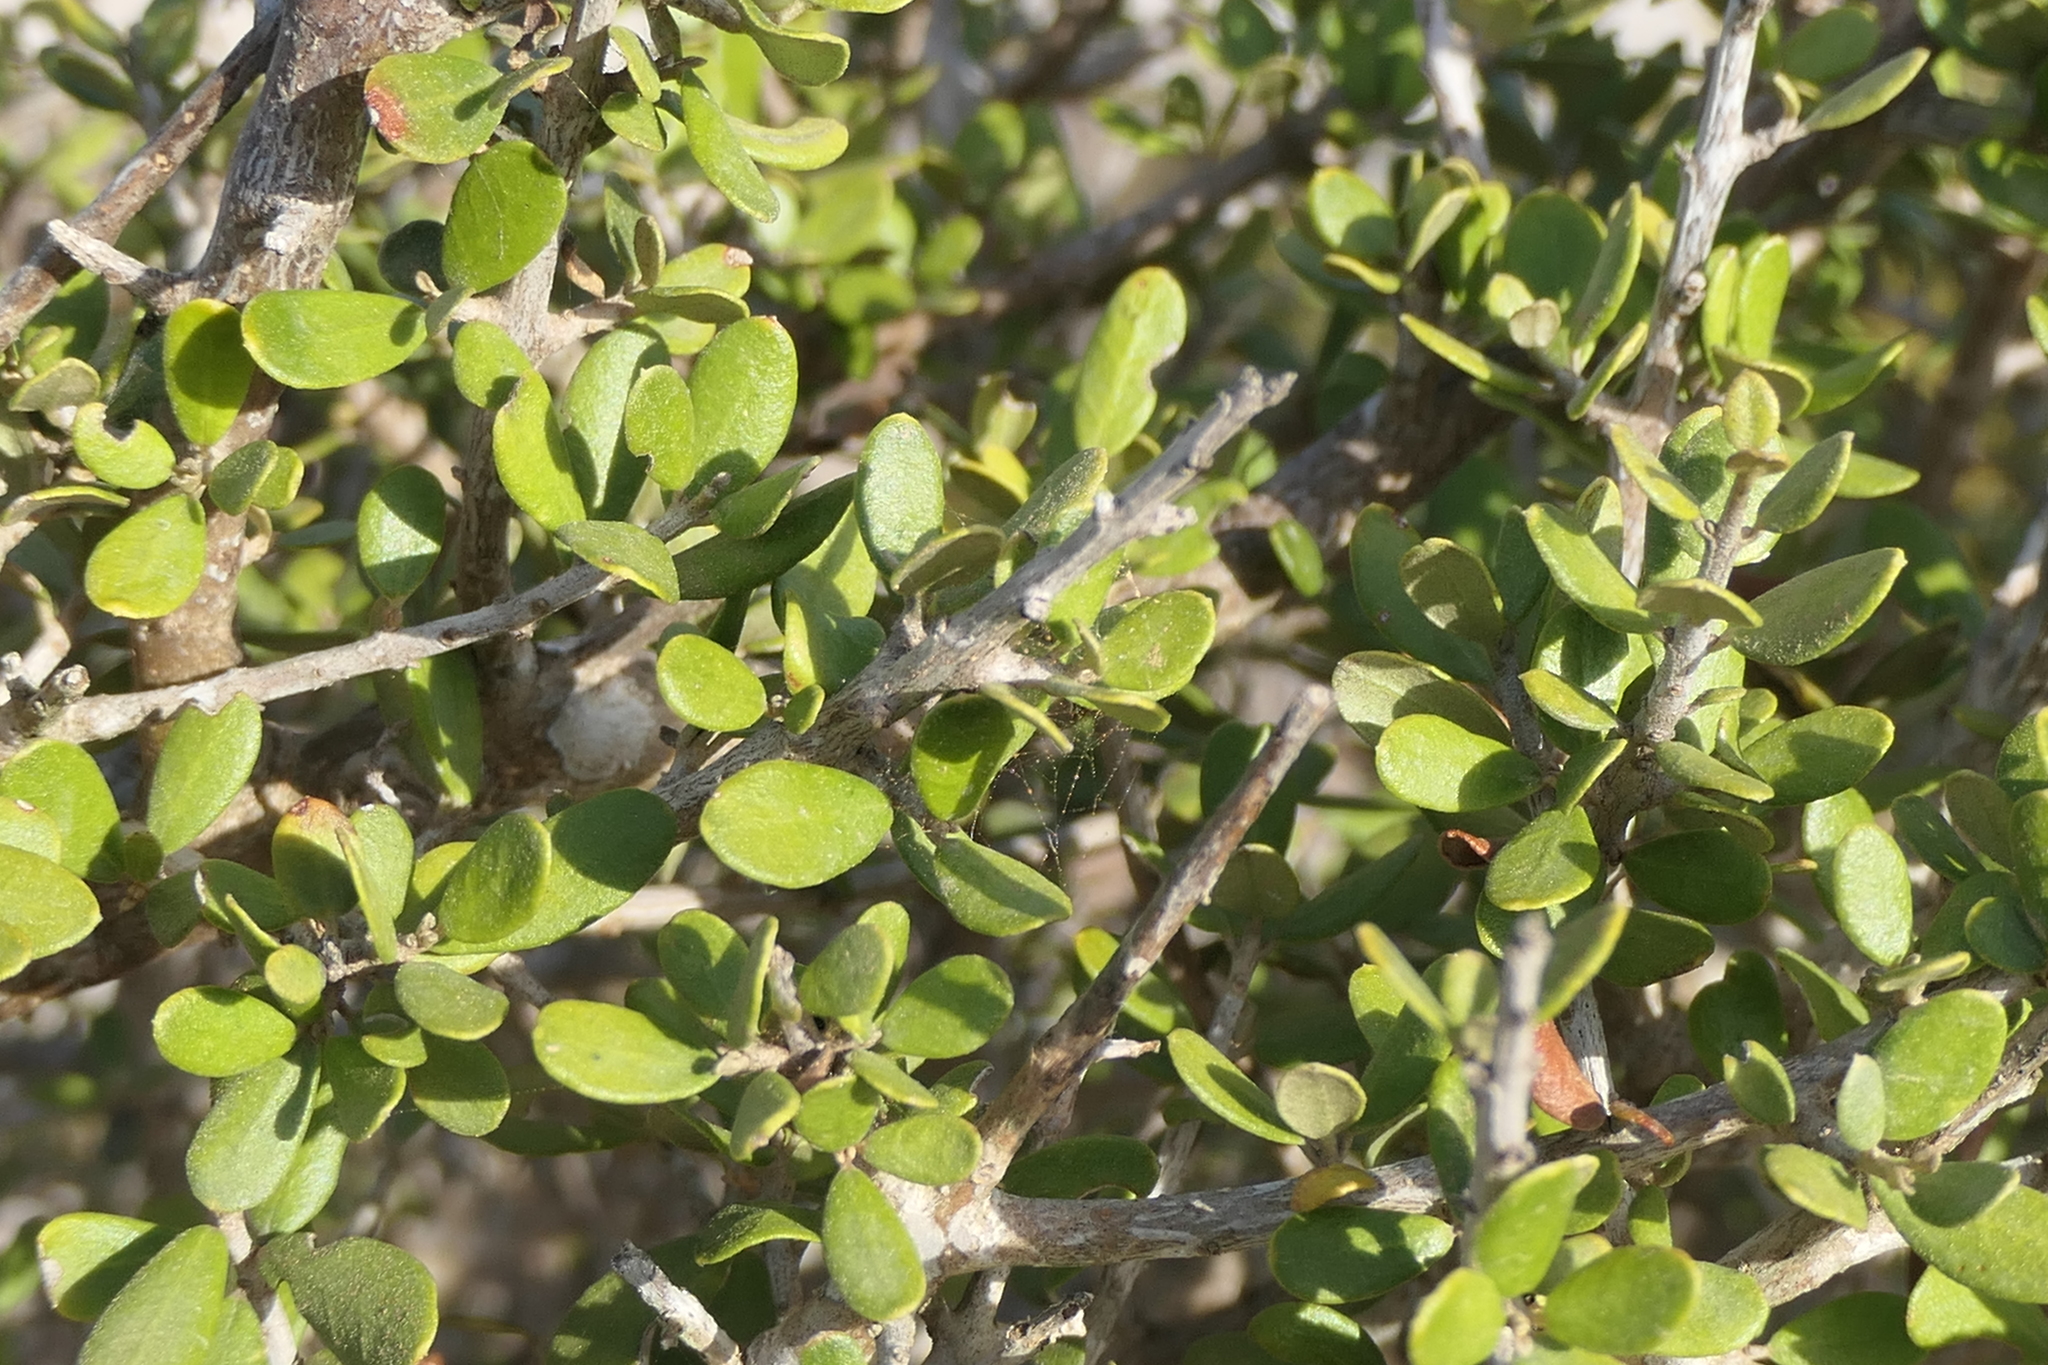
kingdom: Plantae
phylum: Tracheophyta
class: Magnoliopsida
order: Lamiales
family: Oleaceae
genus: Olea
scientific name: Olea europaea
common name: Olive
